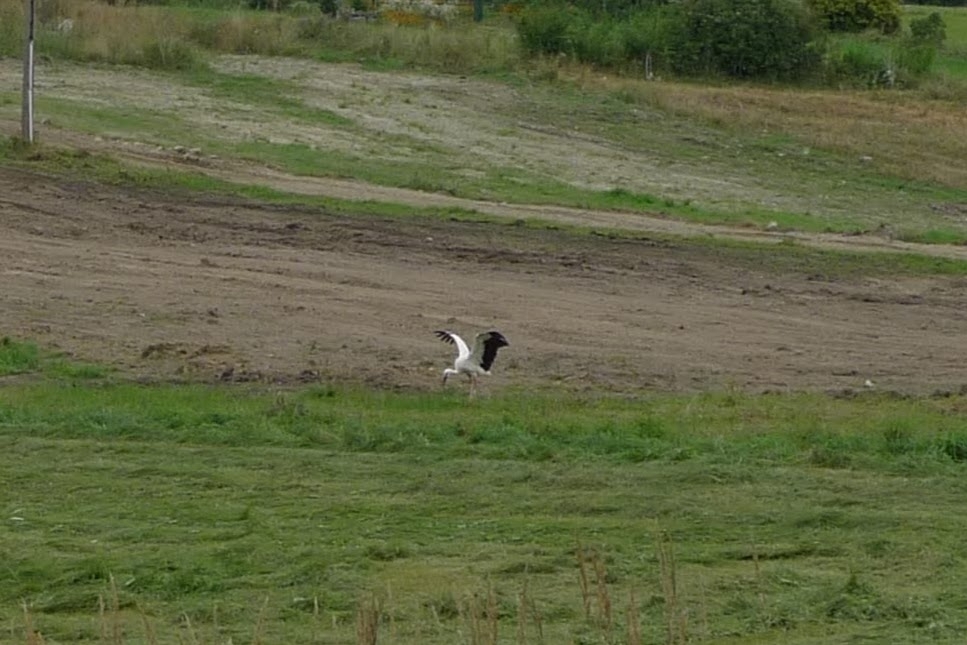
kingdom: Animalia
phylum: Chordata
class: Aves
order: Ciconiiformes
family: Ciconiidae
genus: Ciconia
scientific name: Ciconia ciconia
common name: White stork
